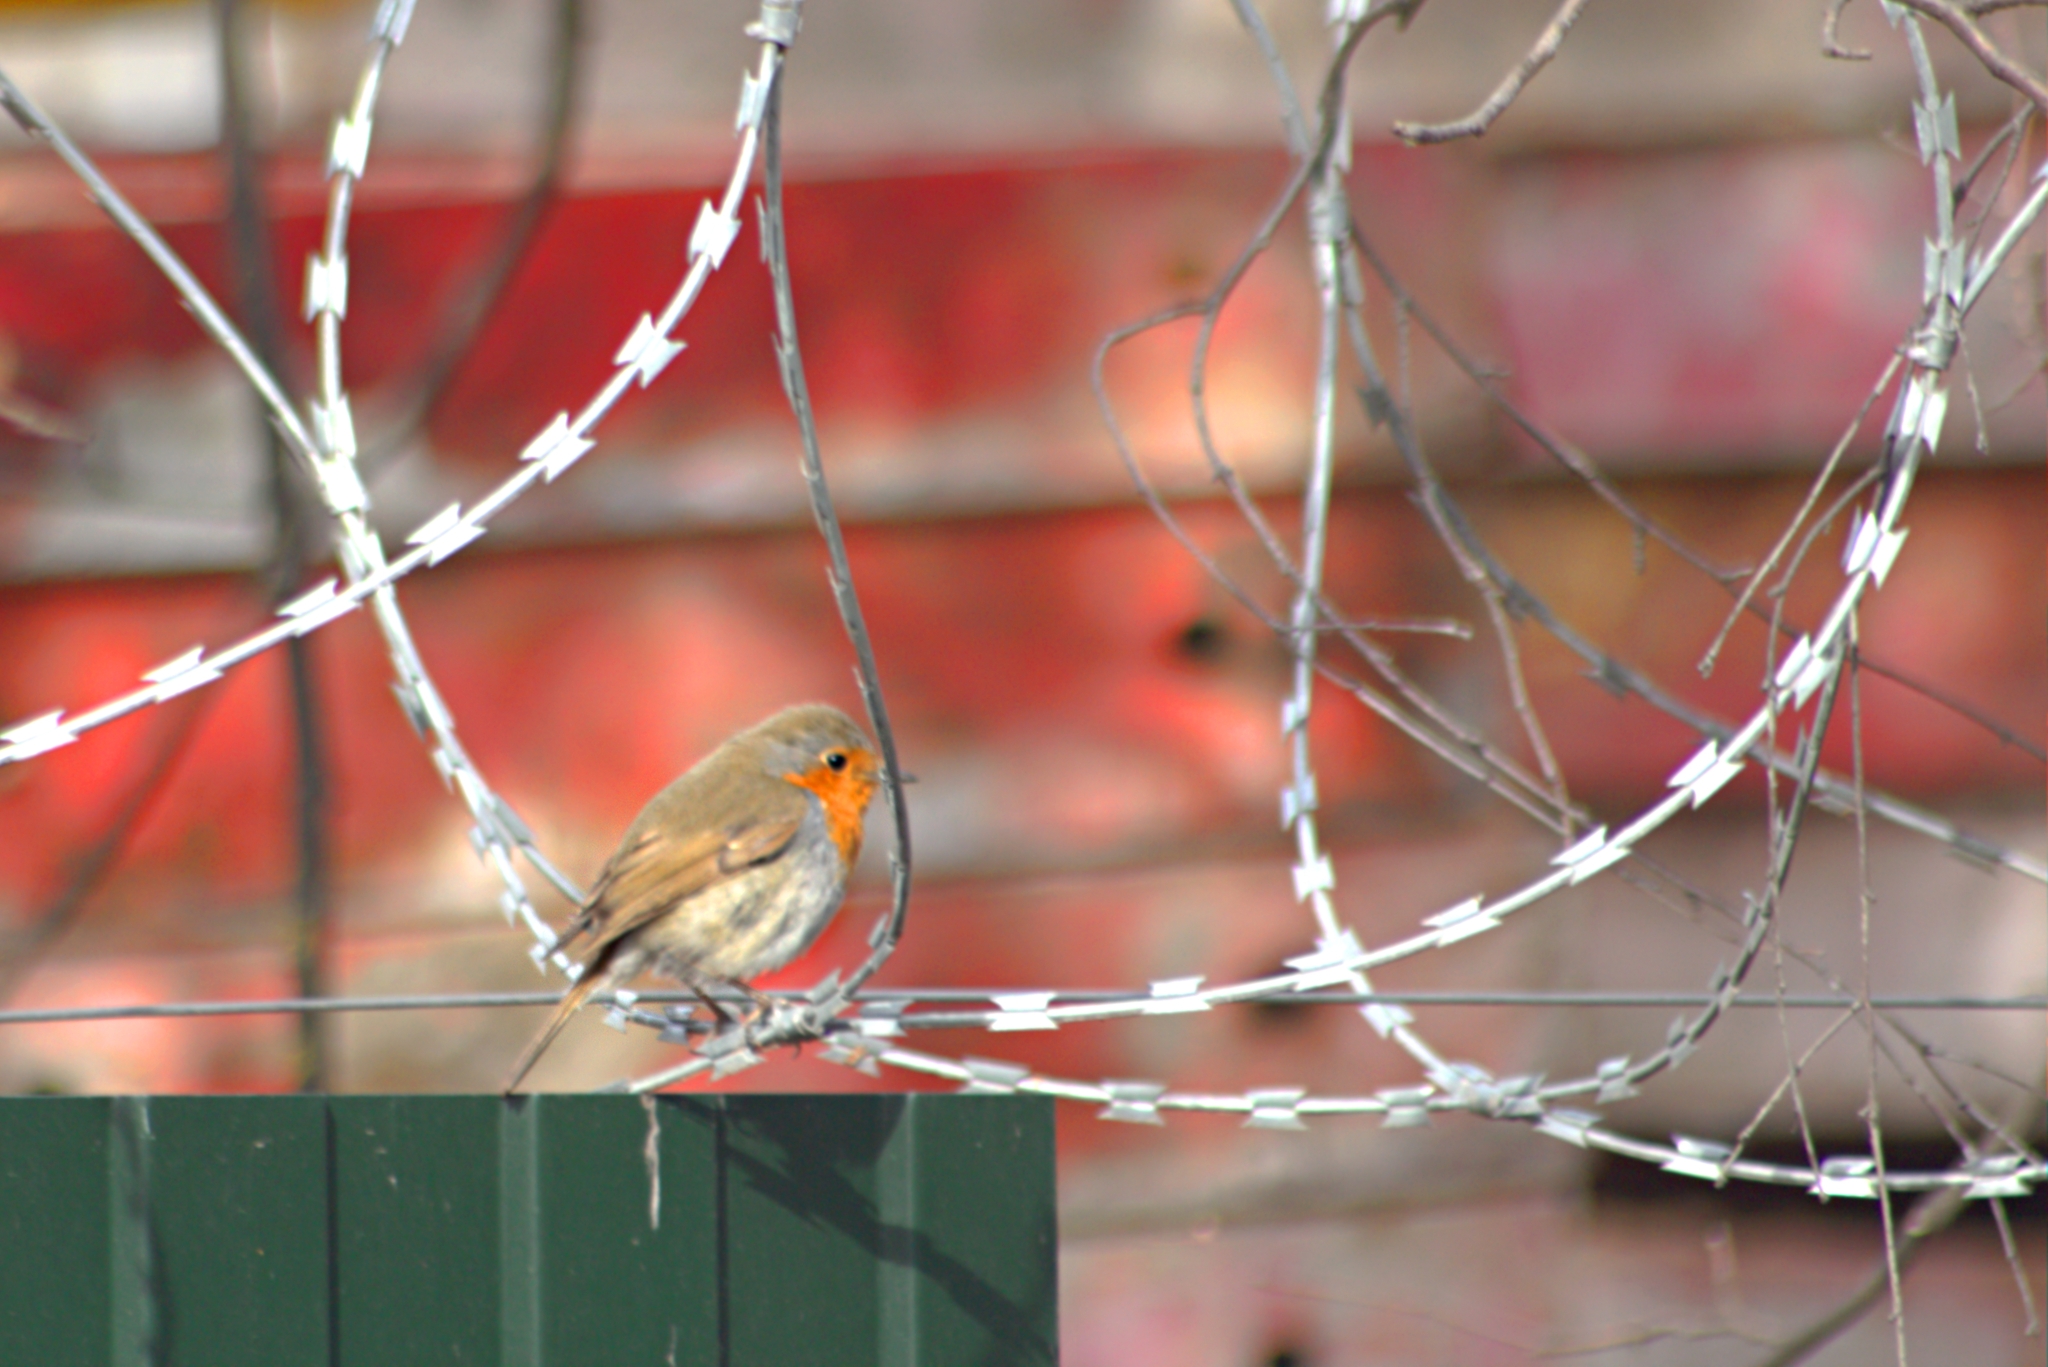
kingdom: Animalia
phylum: Chordata
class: Aves
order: Passeriformes
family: Muscicapidae
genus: Erithacus
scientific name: Erithacus rubecula
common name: European robin
